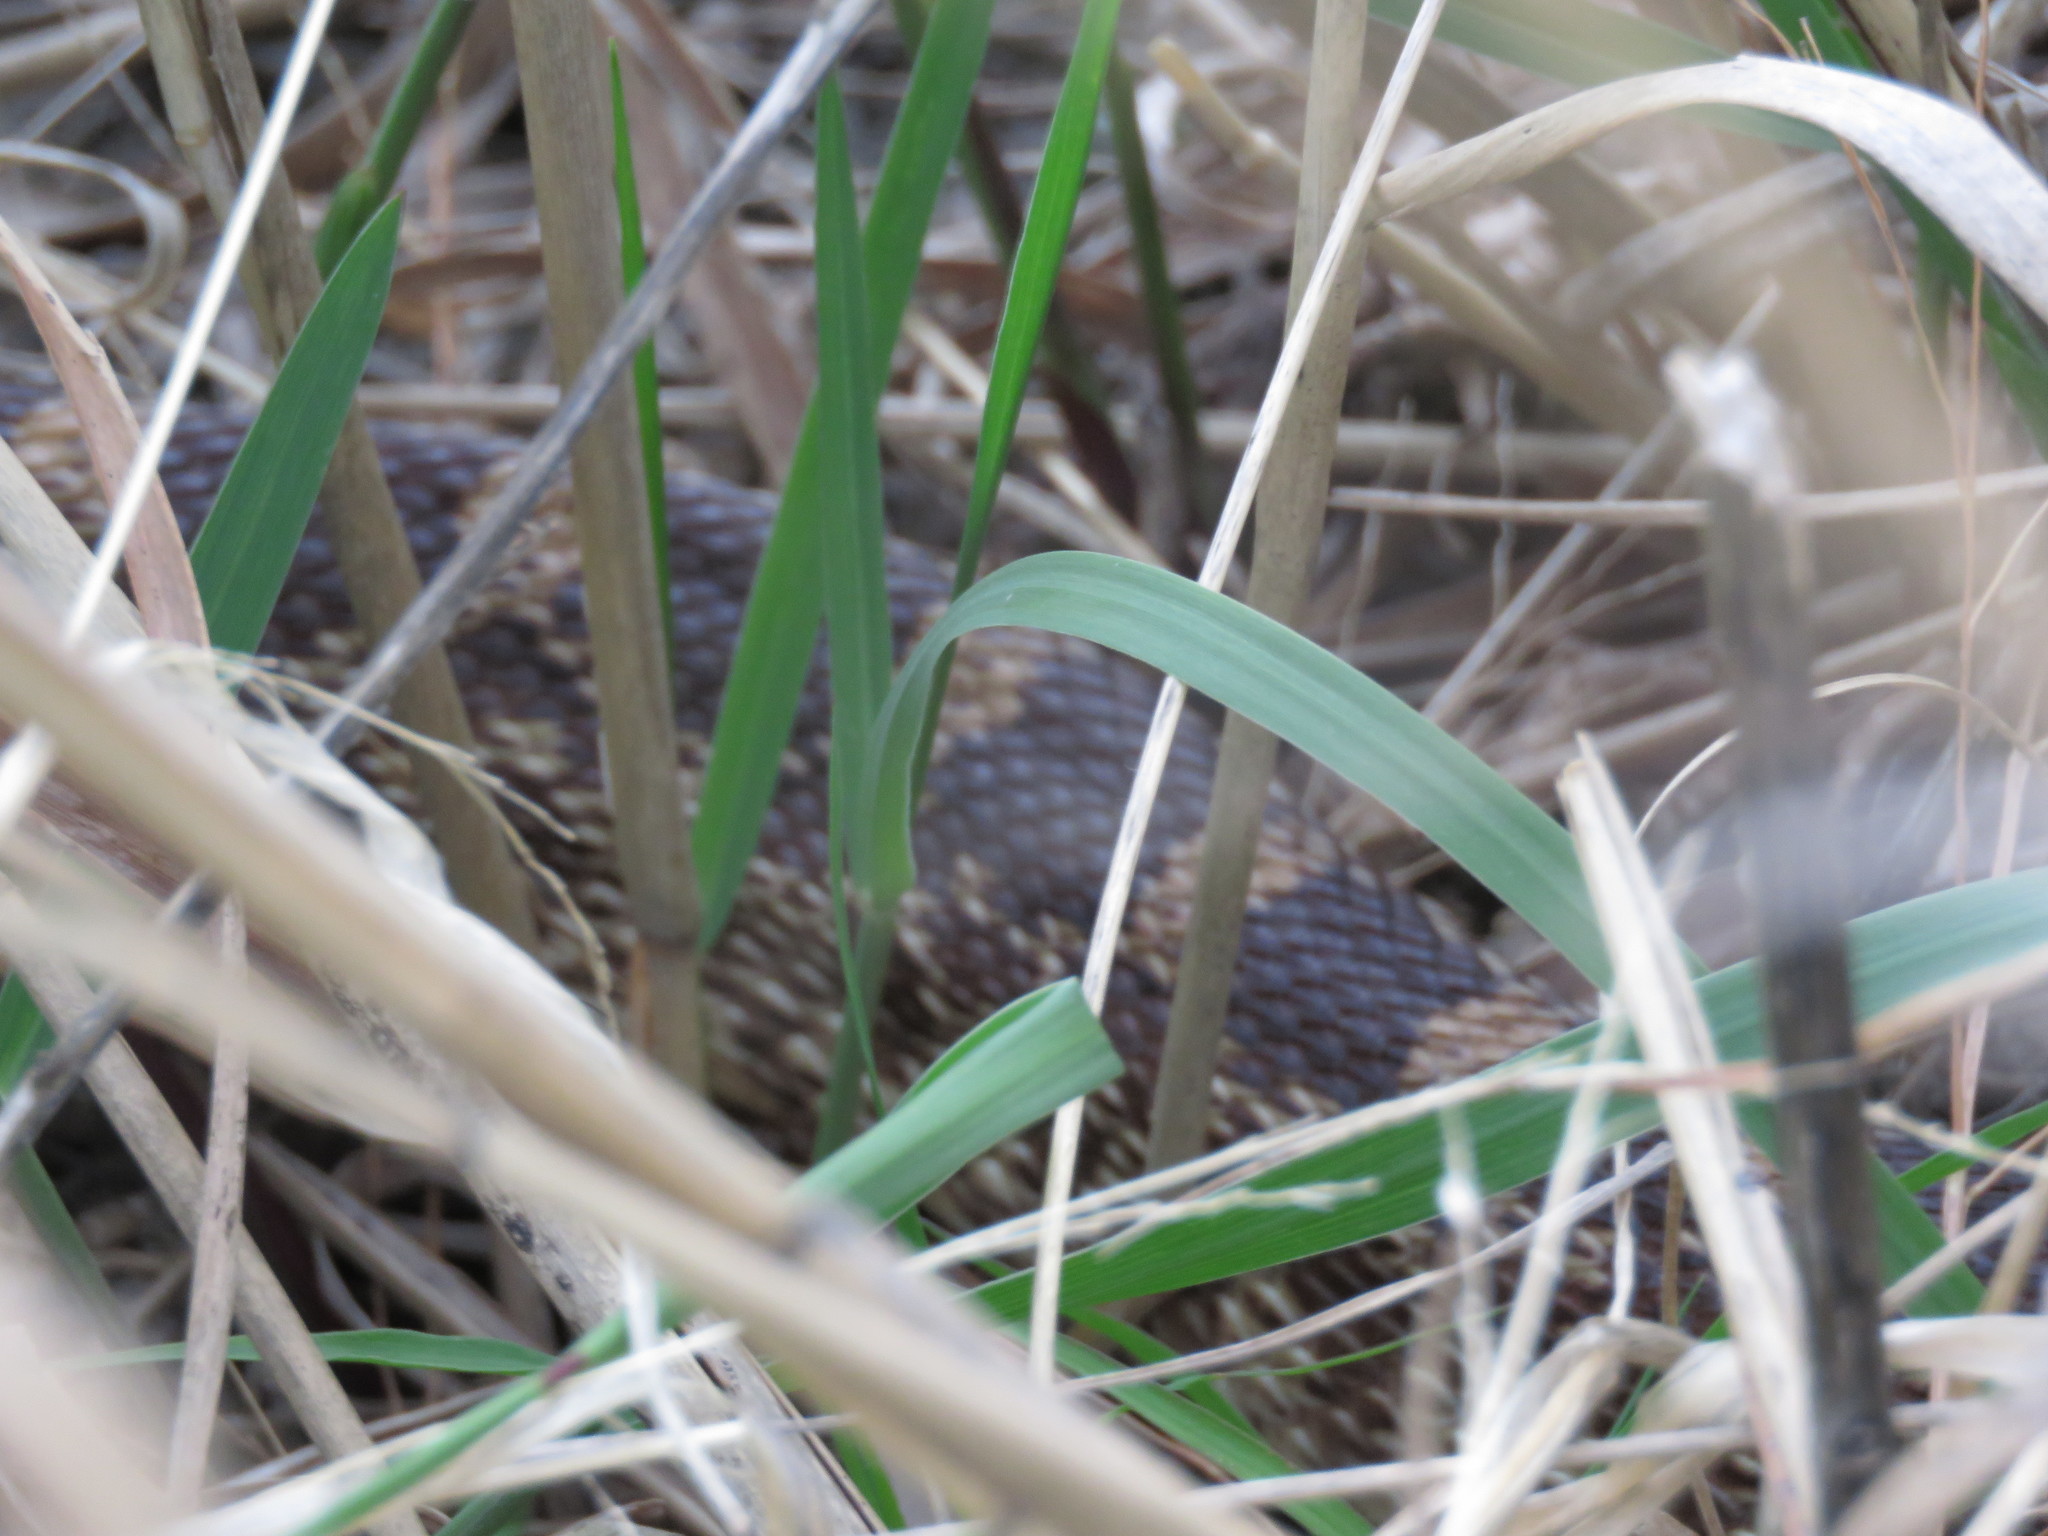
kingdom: Animalia
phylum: Chordata
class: Squamata
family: Colubridae
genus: Pituophis
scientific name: Pituophis catenifer
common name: Gopher snake
